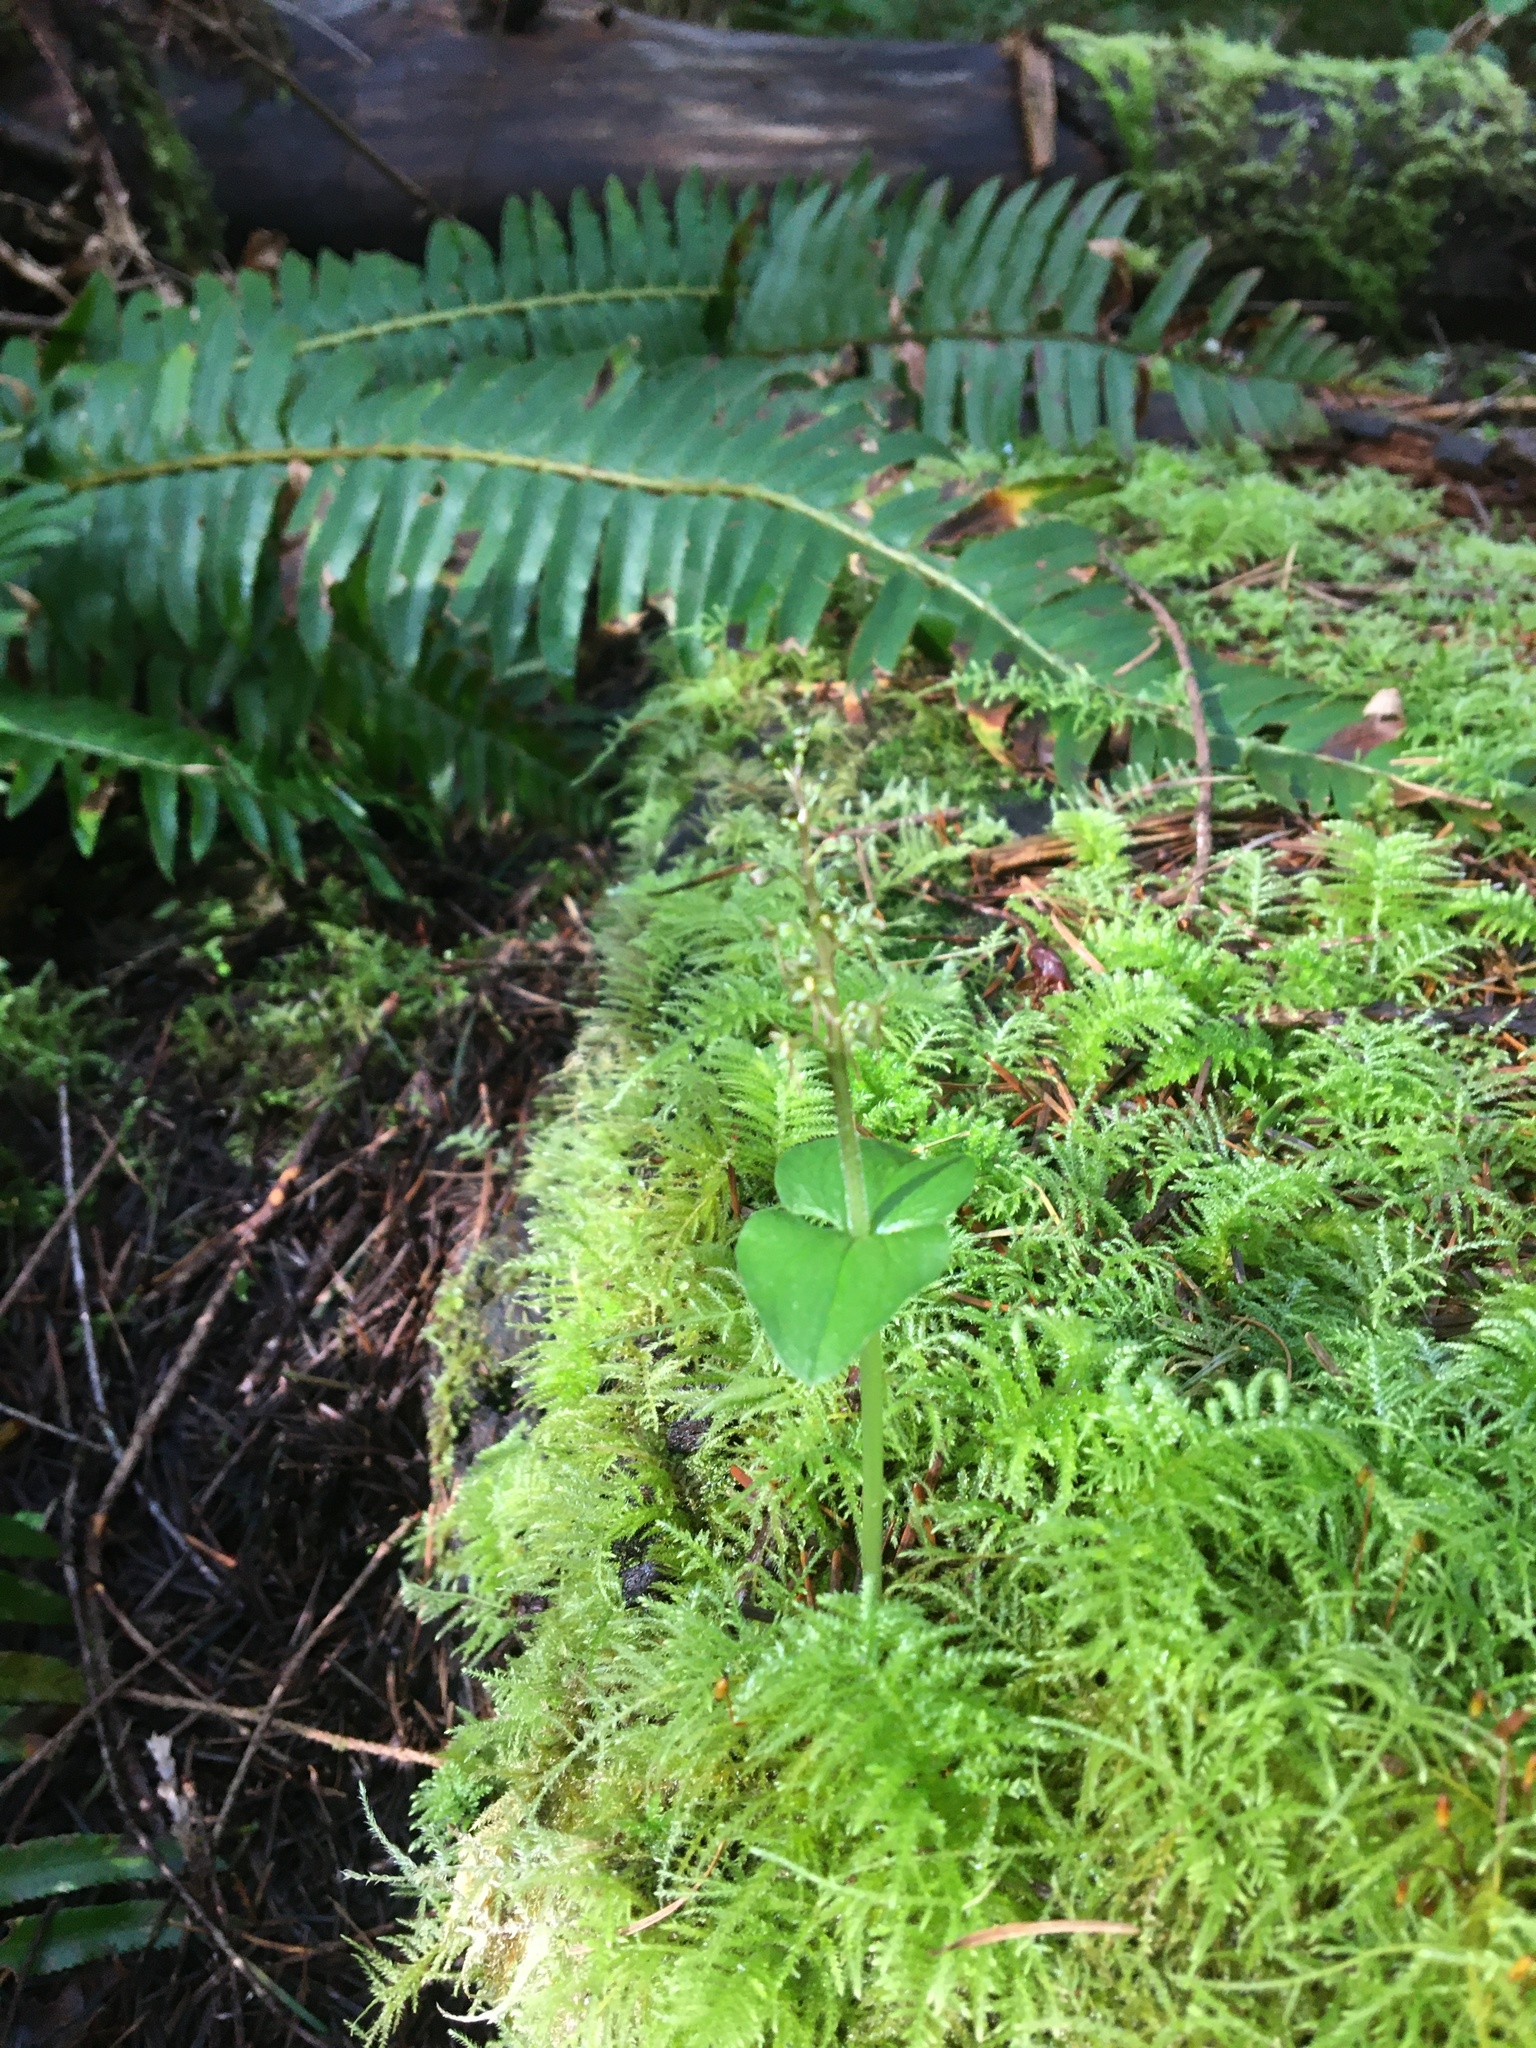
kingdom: Plantae
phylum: Tracheophyta
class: Liliopsida
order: Asparagales
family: Orchidaceae
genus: Neottia
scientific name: Neottia cordata
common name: Lesser twayblade
